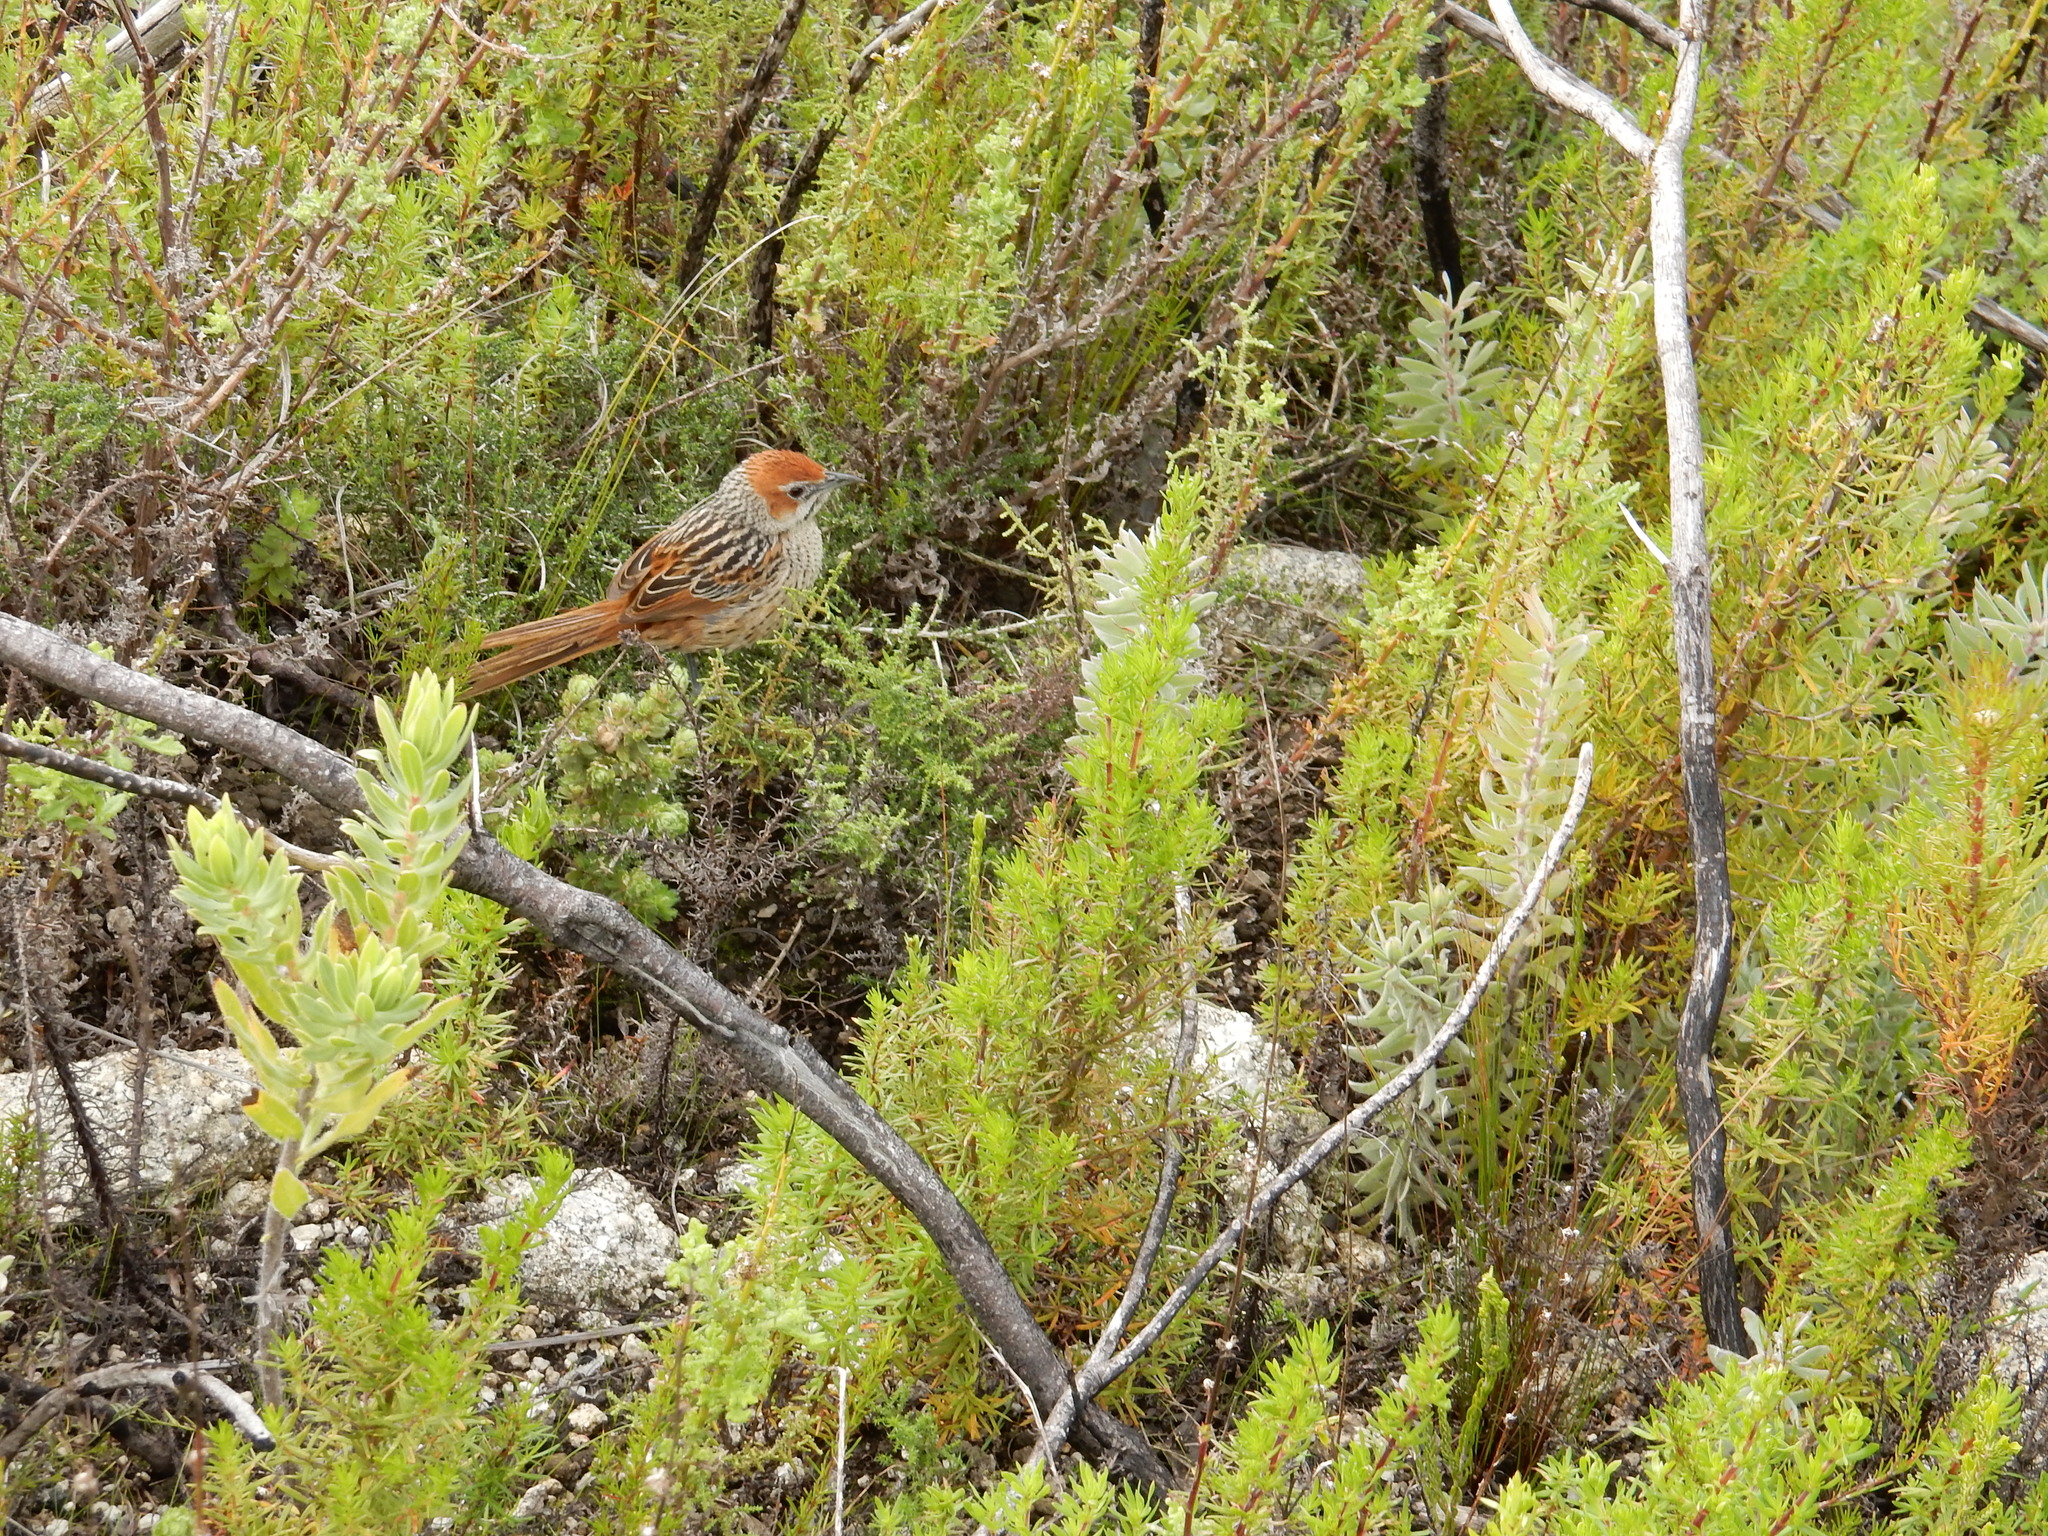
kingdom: Animalia
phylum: Chordata
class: Aves
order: Passeriformes
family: Macrosphenidae
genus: Sphenoeacus
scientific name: Sphenoeacus afer
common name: Cape grassbird
